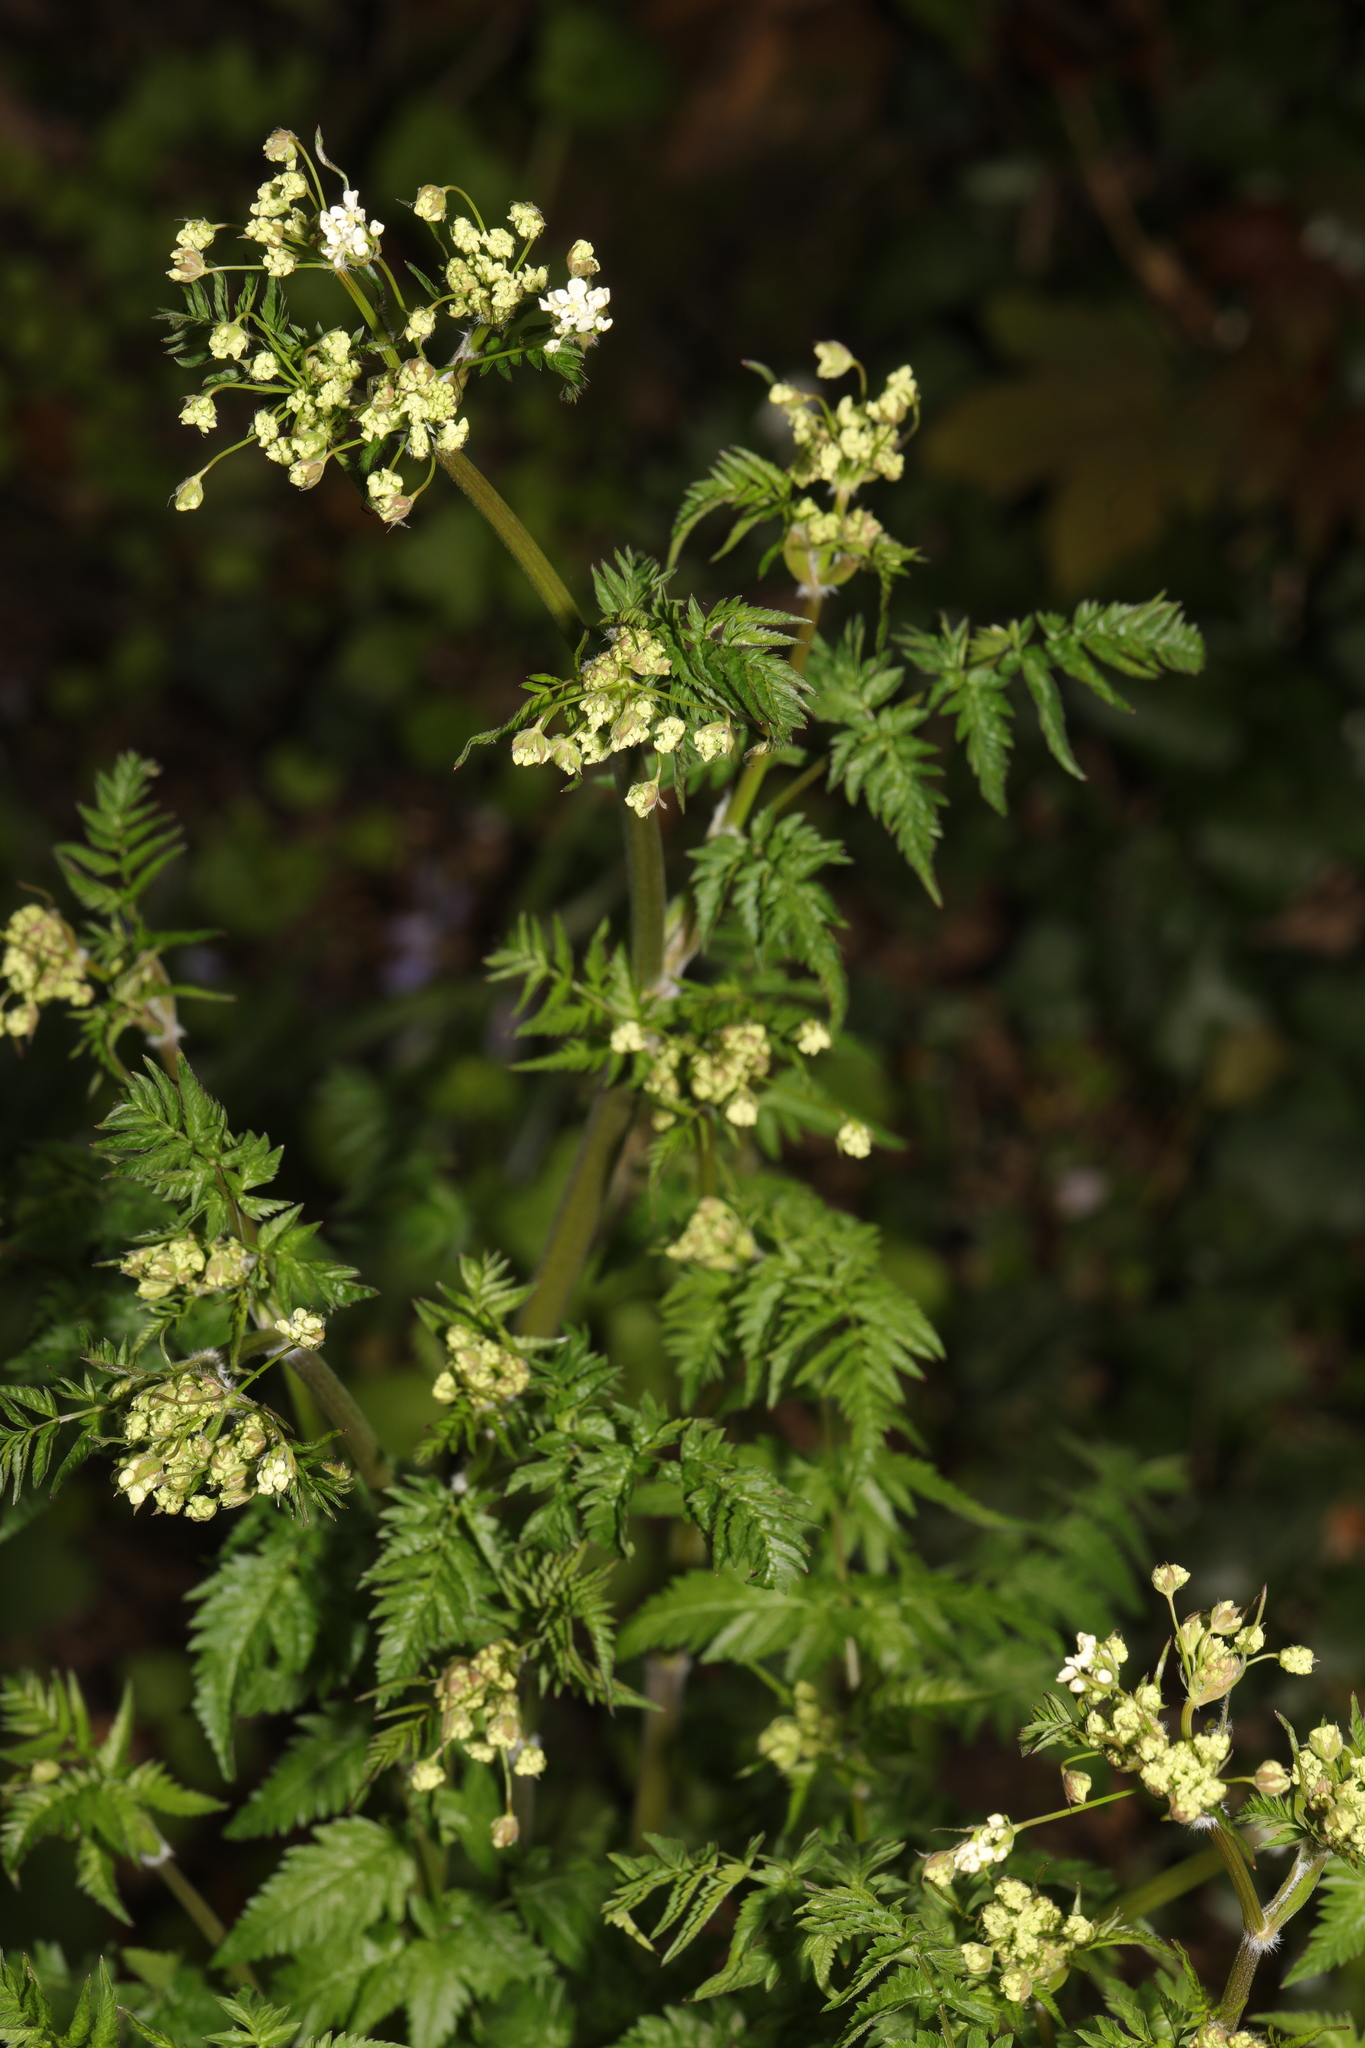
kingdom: Plantae
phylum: Tracheophyta
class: Magnoliopsida
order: Apiales
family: Apiaceae
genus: Anthriscus
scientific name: Anthriscus sylvestris
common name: Cow parsley
